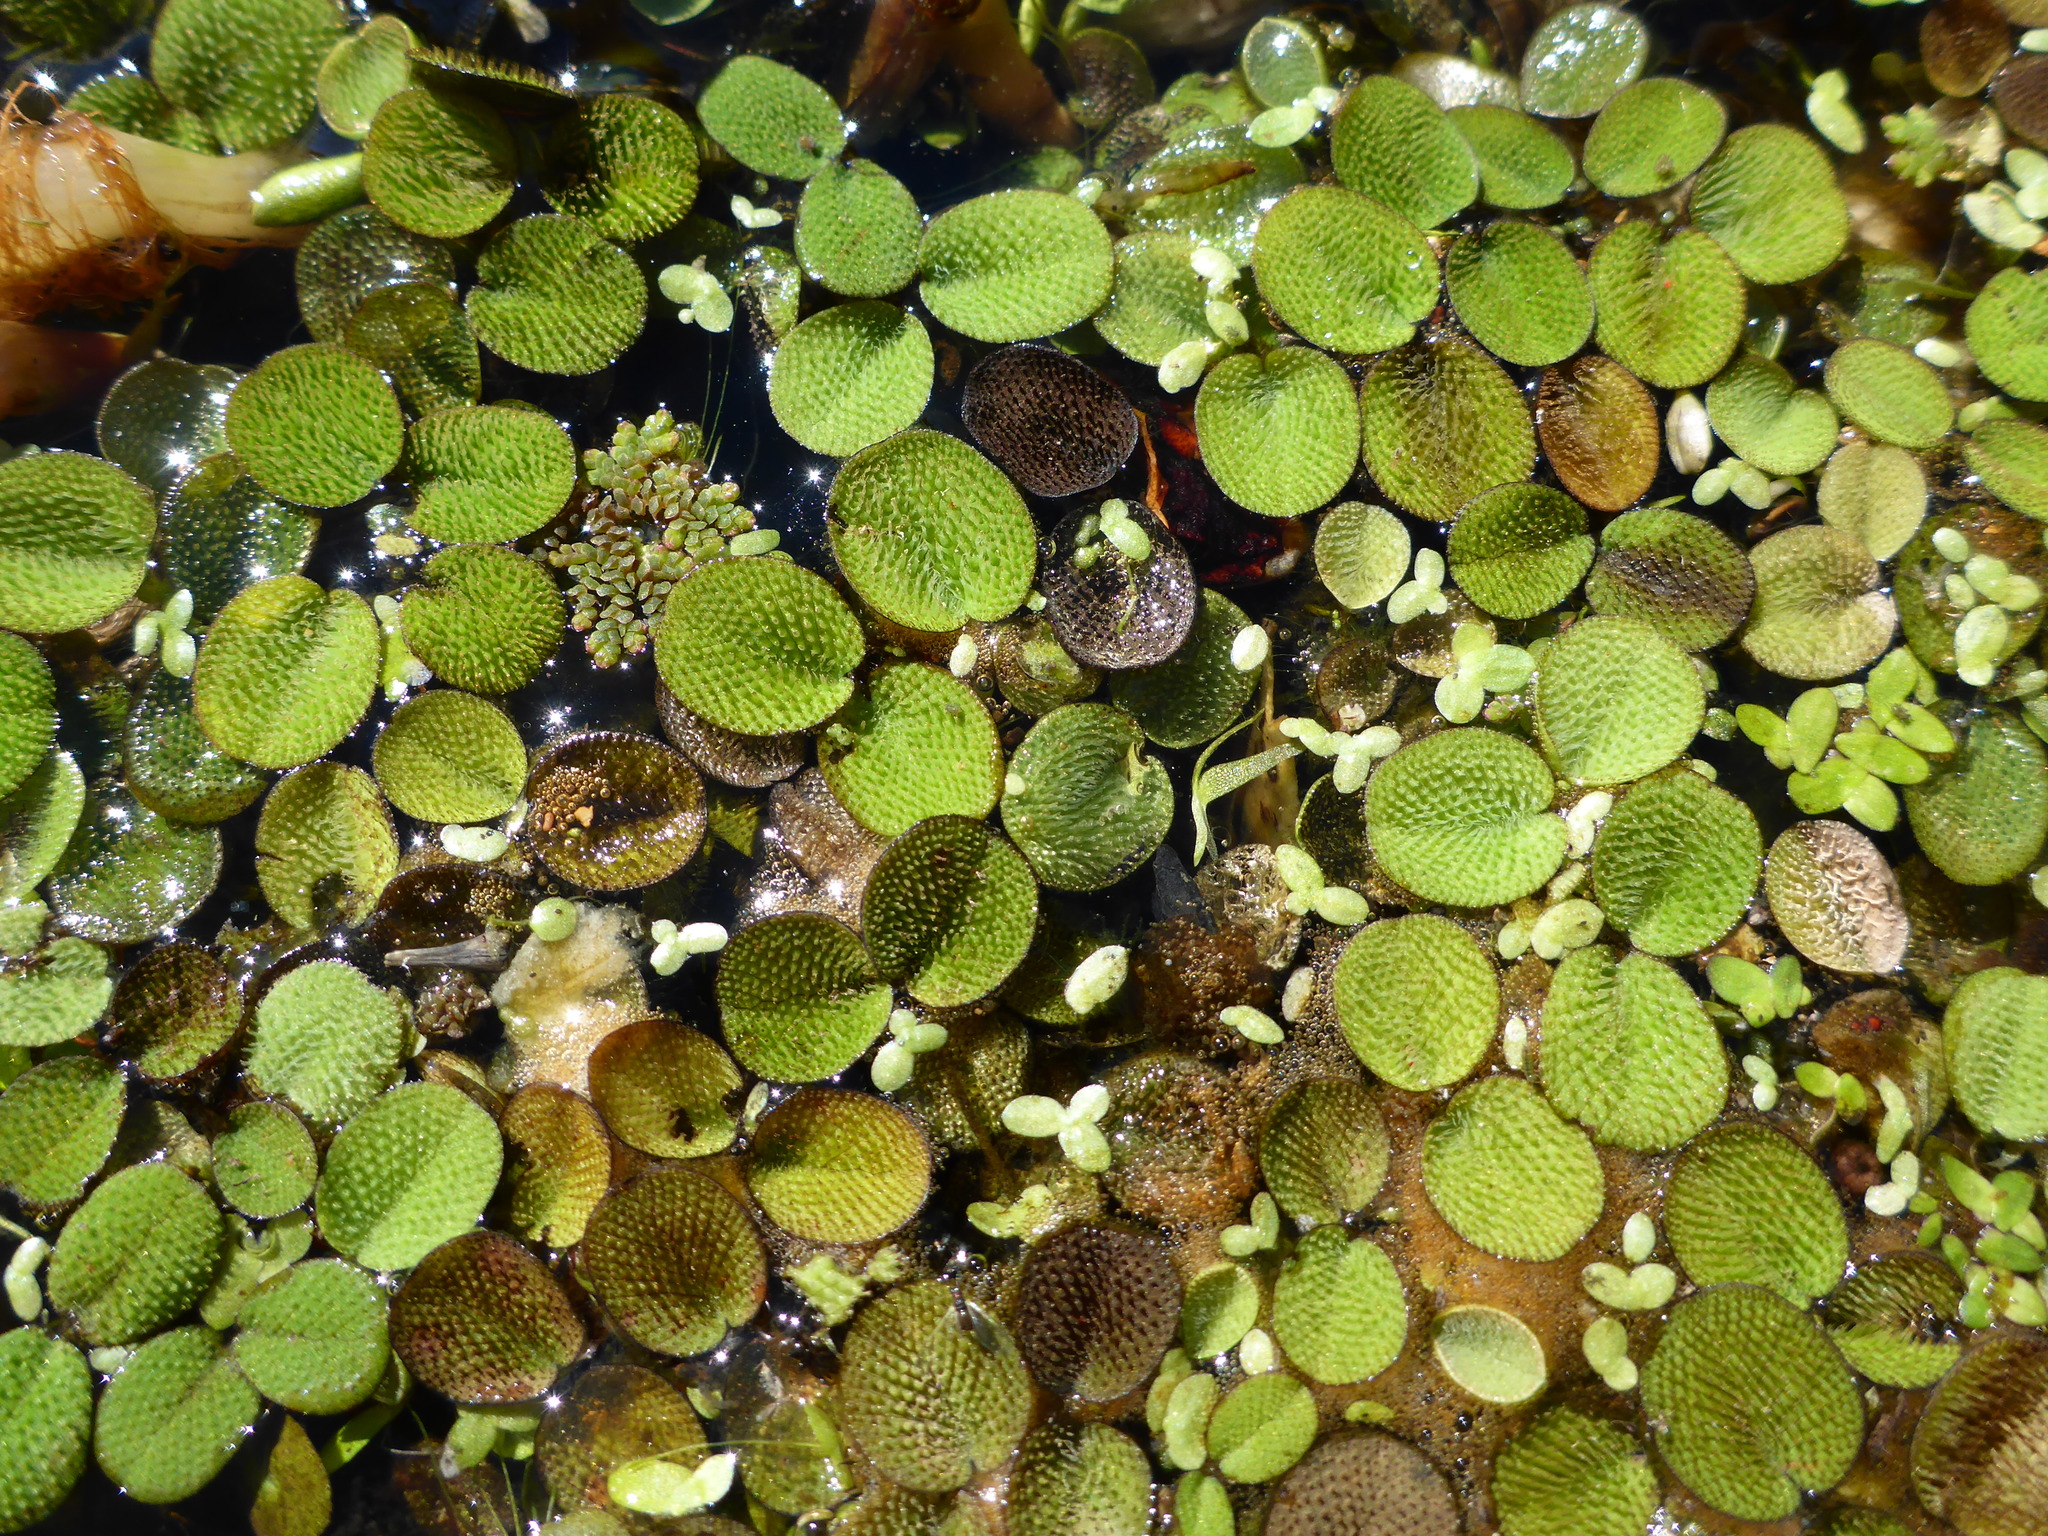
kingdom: Plantae
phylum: Tracheophyta
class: Polypodiopsida
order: Salviniales
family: Salviniaceae
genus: Salvinia
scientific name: Salvinia minima
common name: Water spangles
